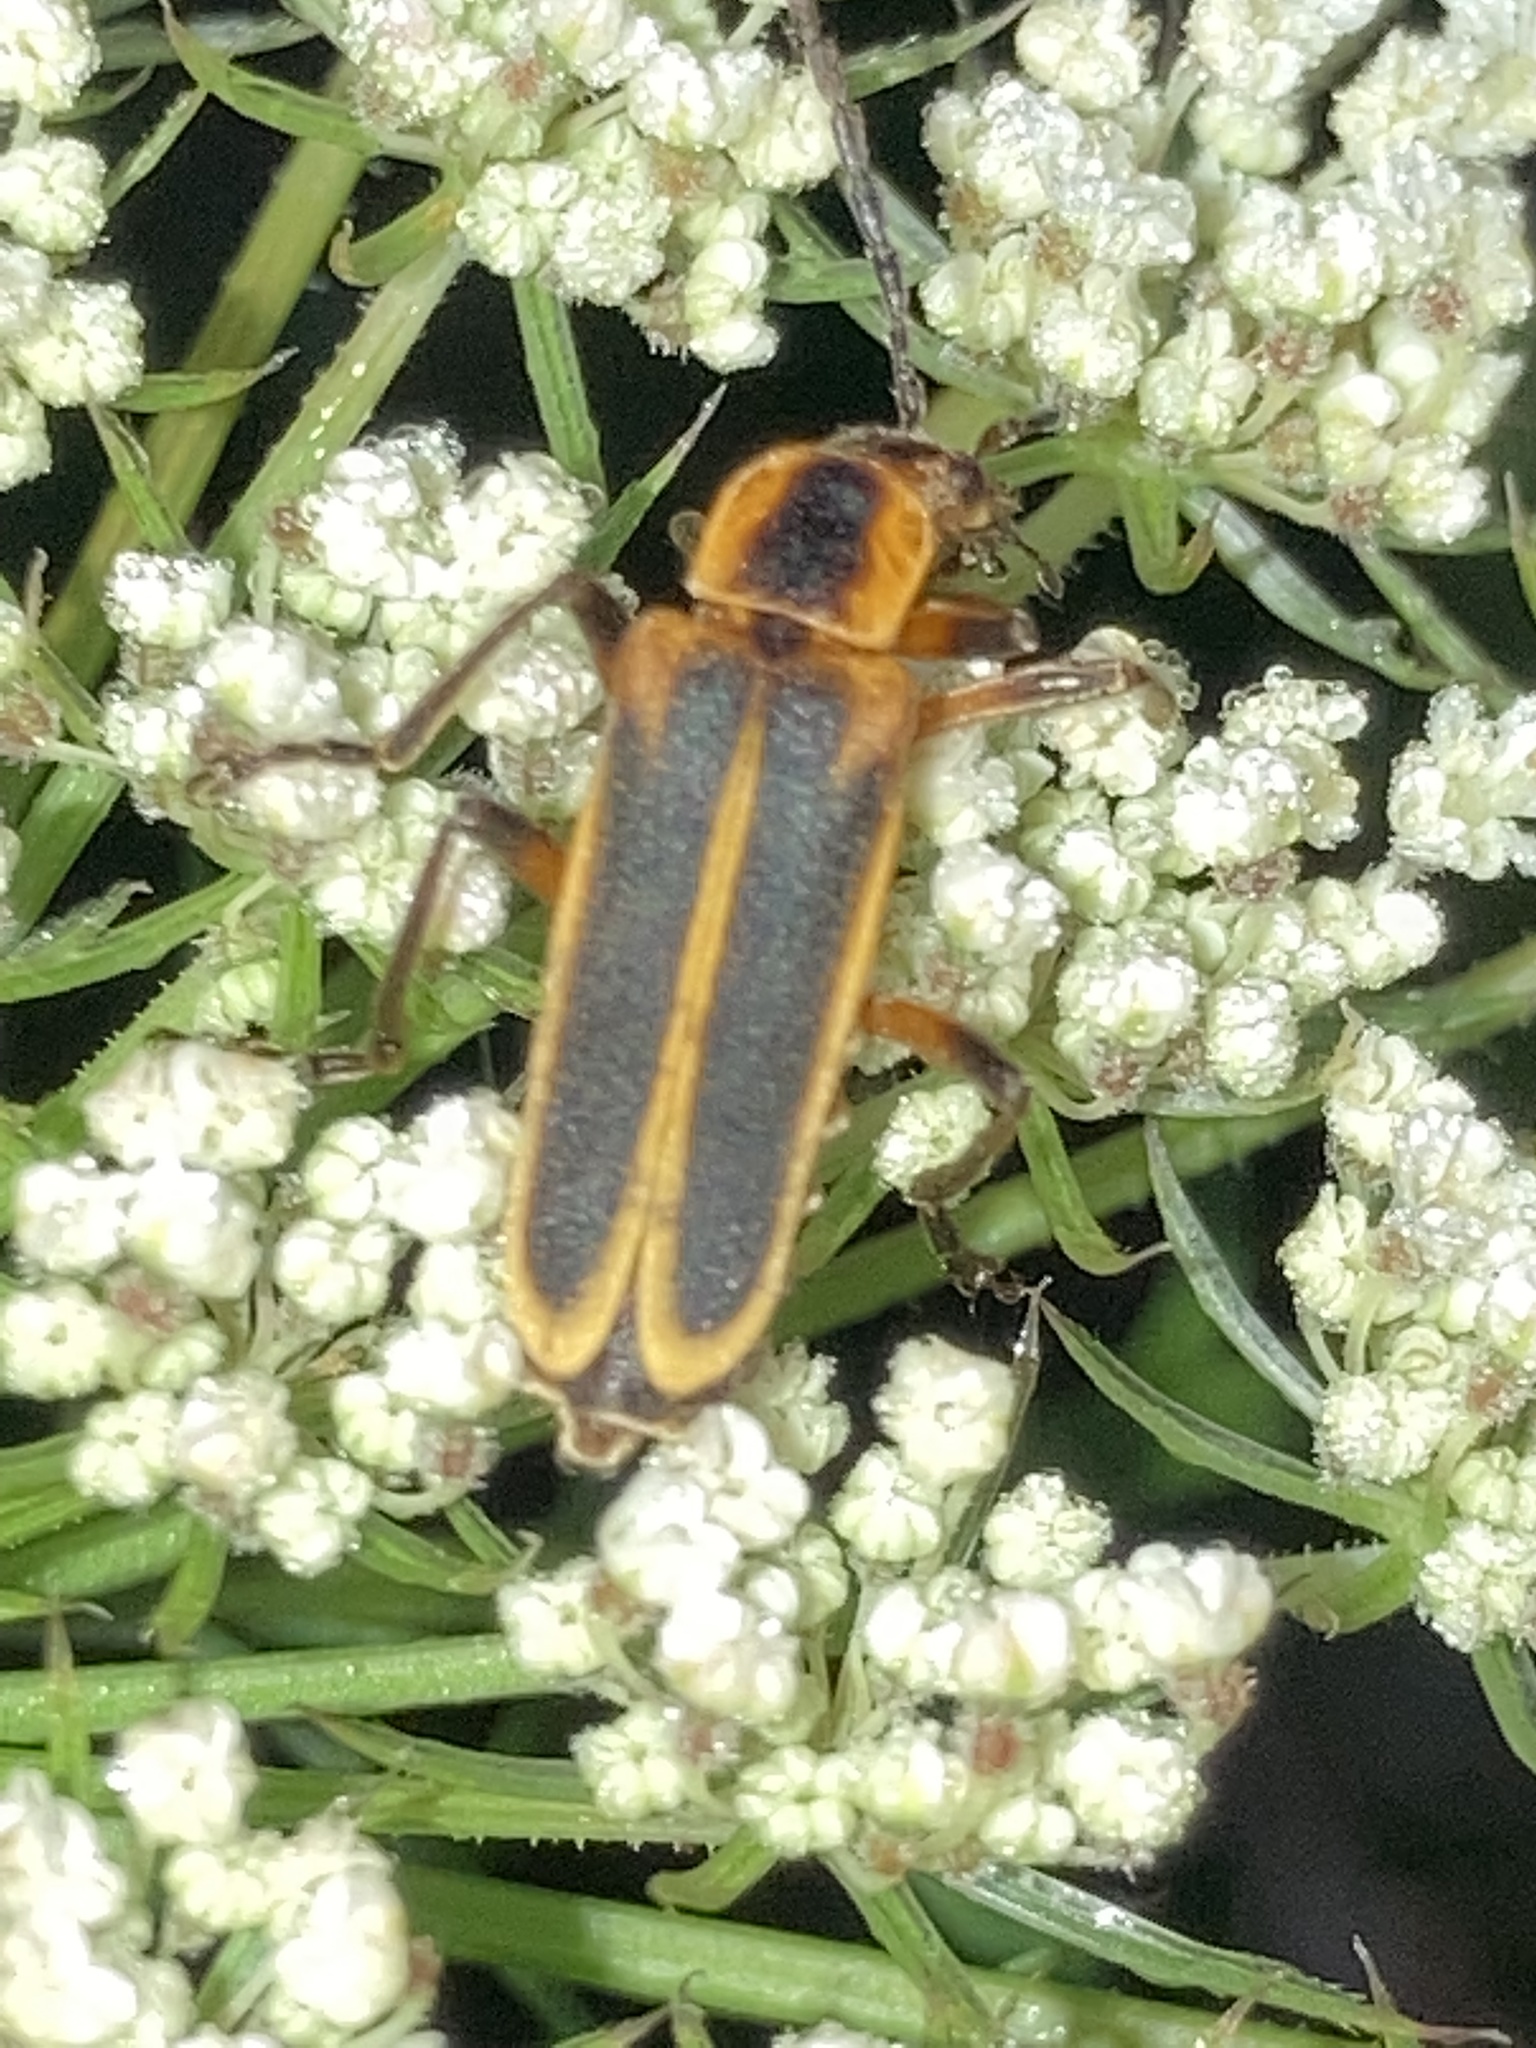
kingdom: Animalia
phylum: Arthropoda
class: Insecta
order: Coleoptera
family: Cantharidae
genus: Chauliognathus
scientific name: Chauliognathus marginatus
